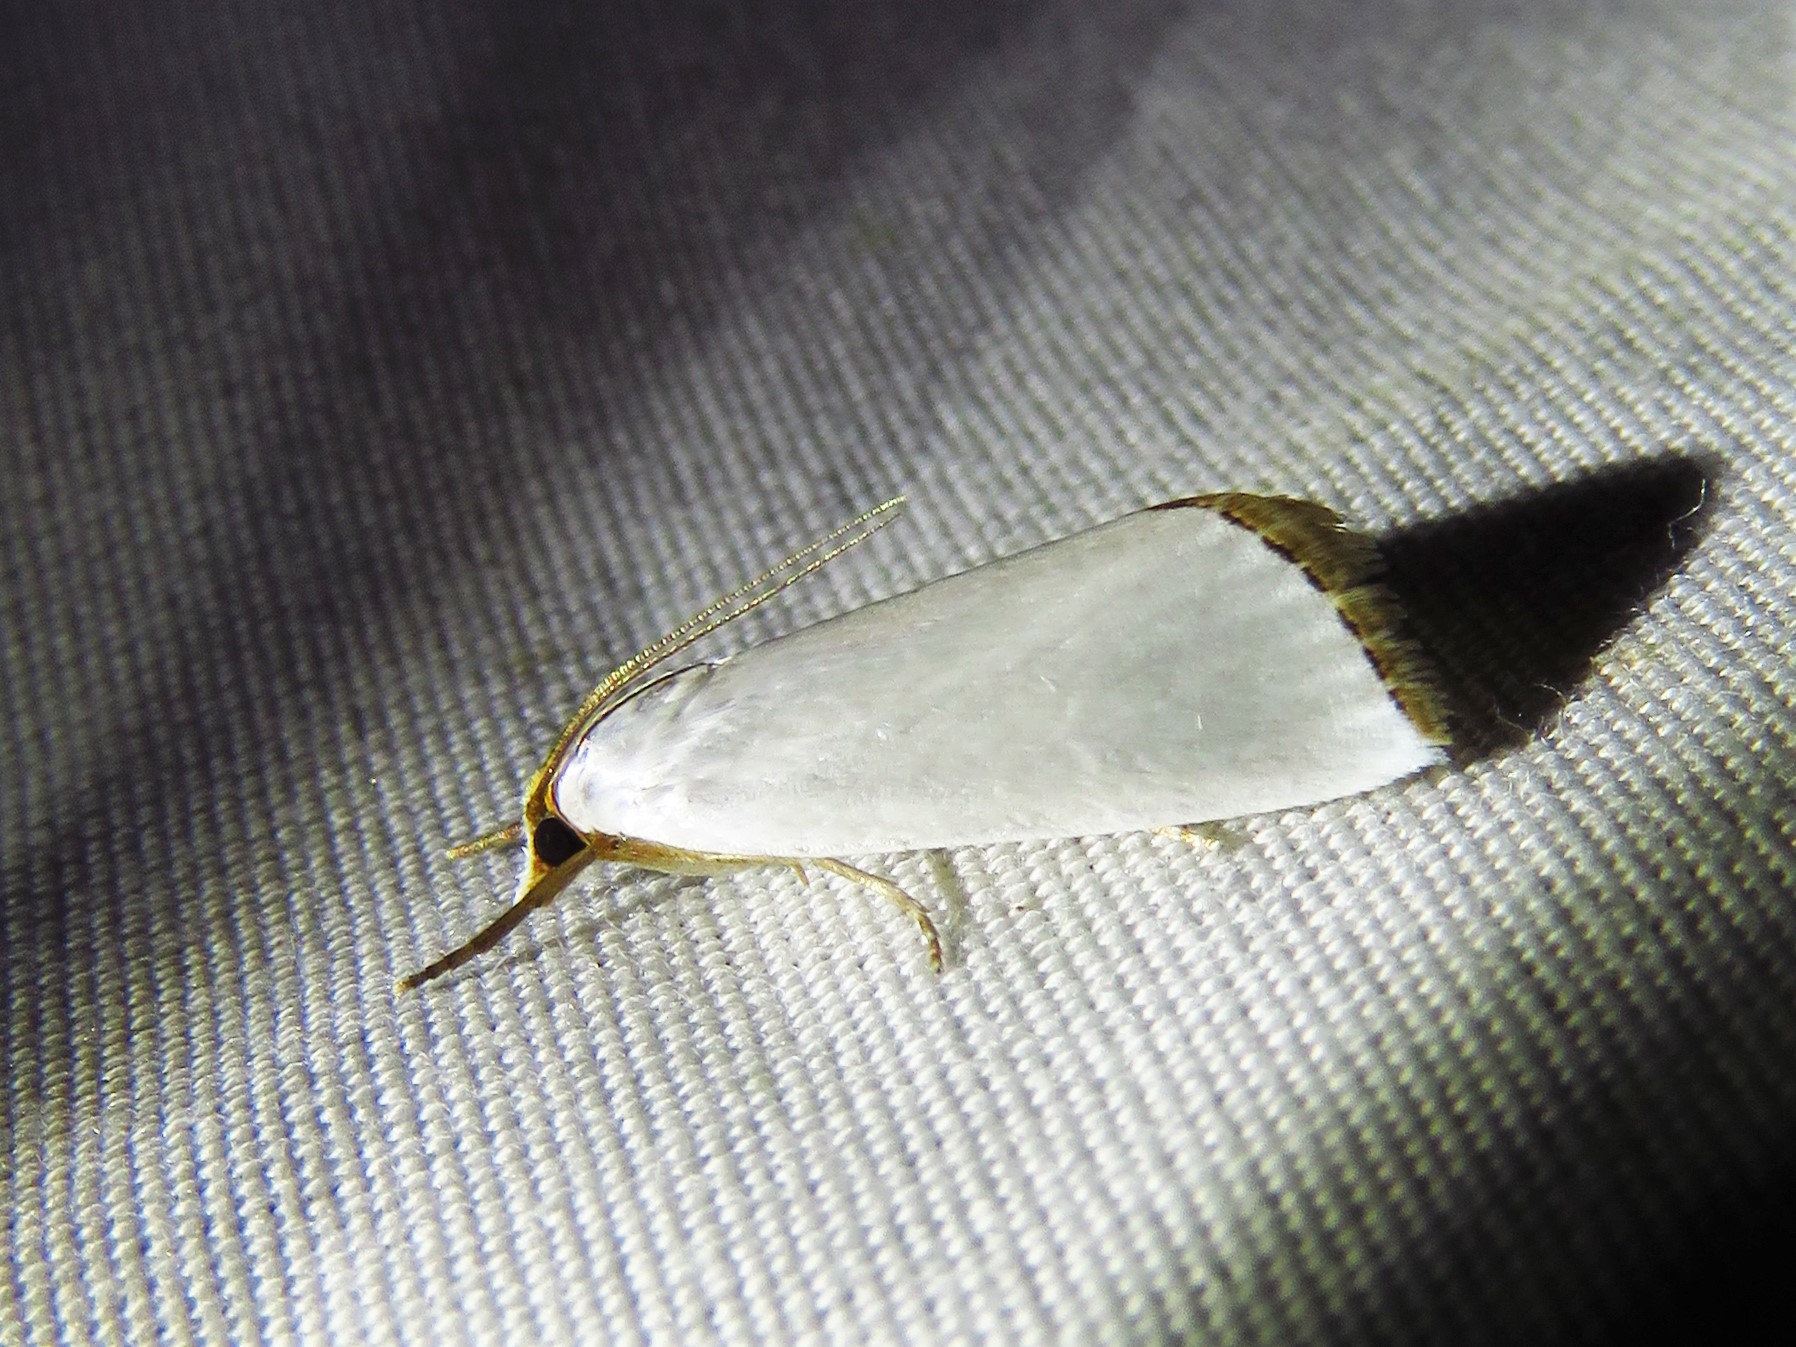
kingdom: Animalia
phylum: Arthropoda
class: Insecta
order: Lepidoptera
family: Crambidae
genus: Argyria
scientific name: Argyria nivalis
